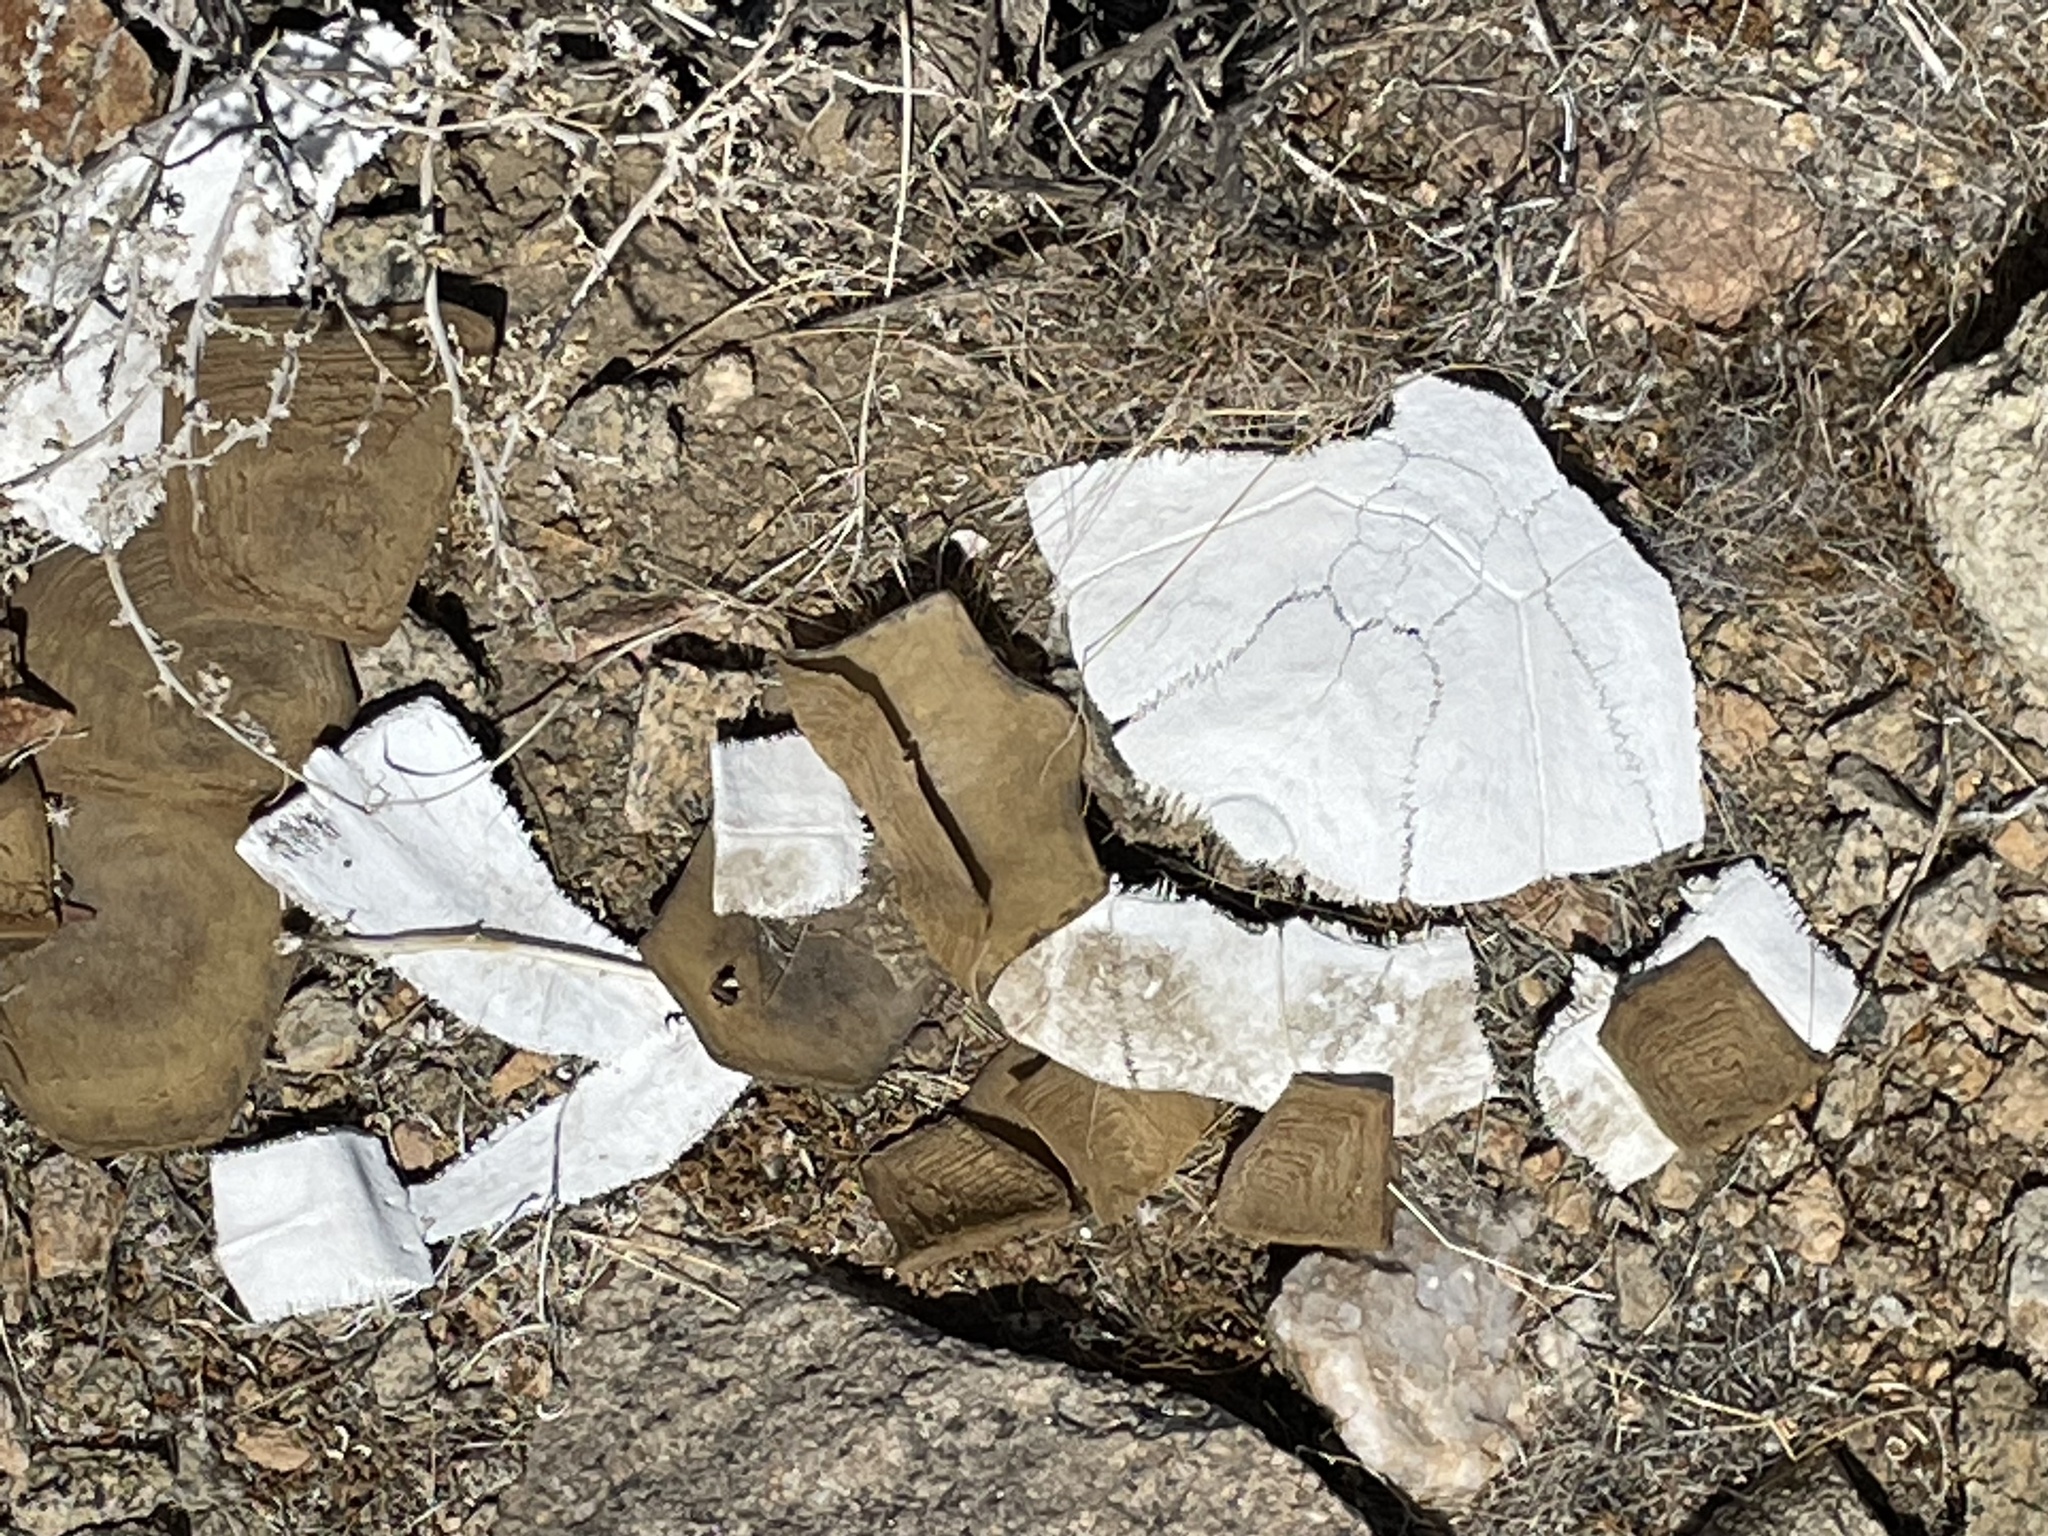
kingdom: Animalia
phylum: Chordata
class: Testudines
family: Testudinidae
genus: Gopherus
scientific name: Gopherus agassizii
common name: Mojave desert tortoise
